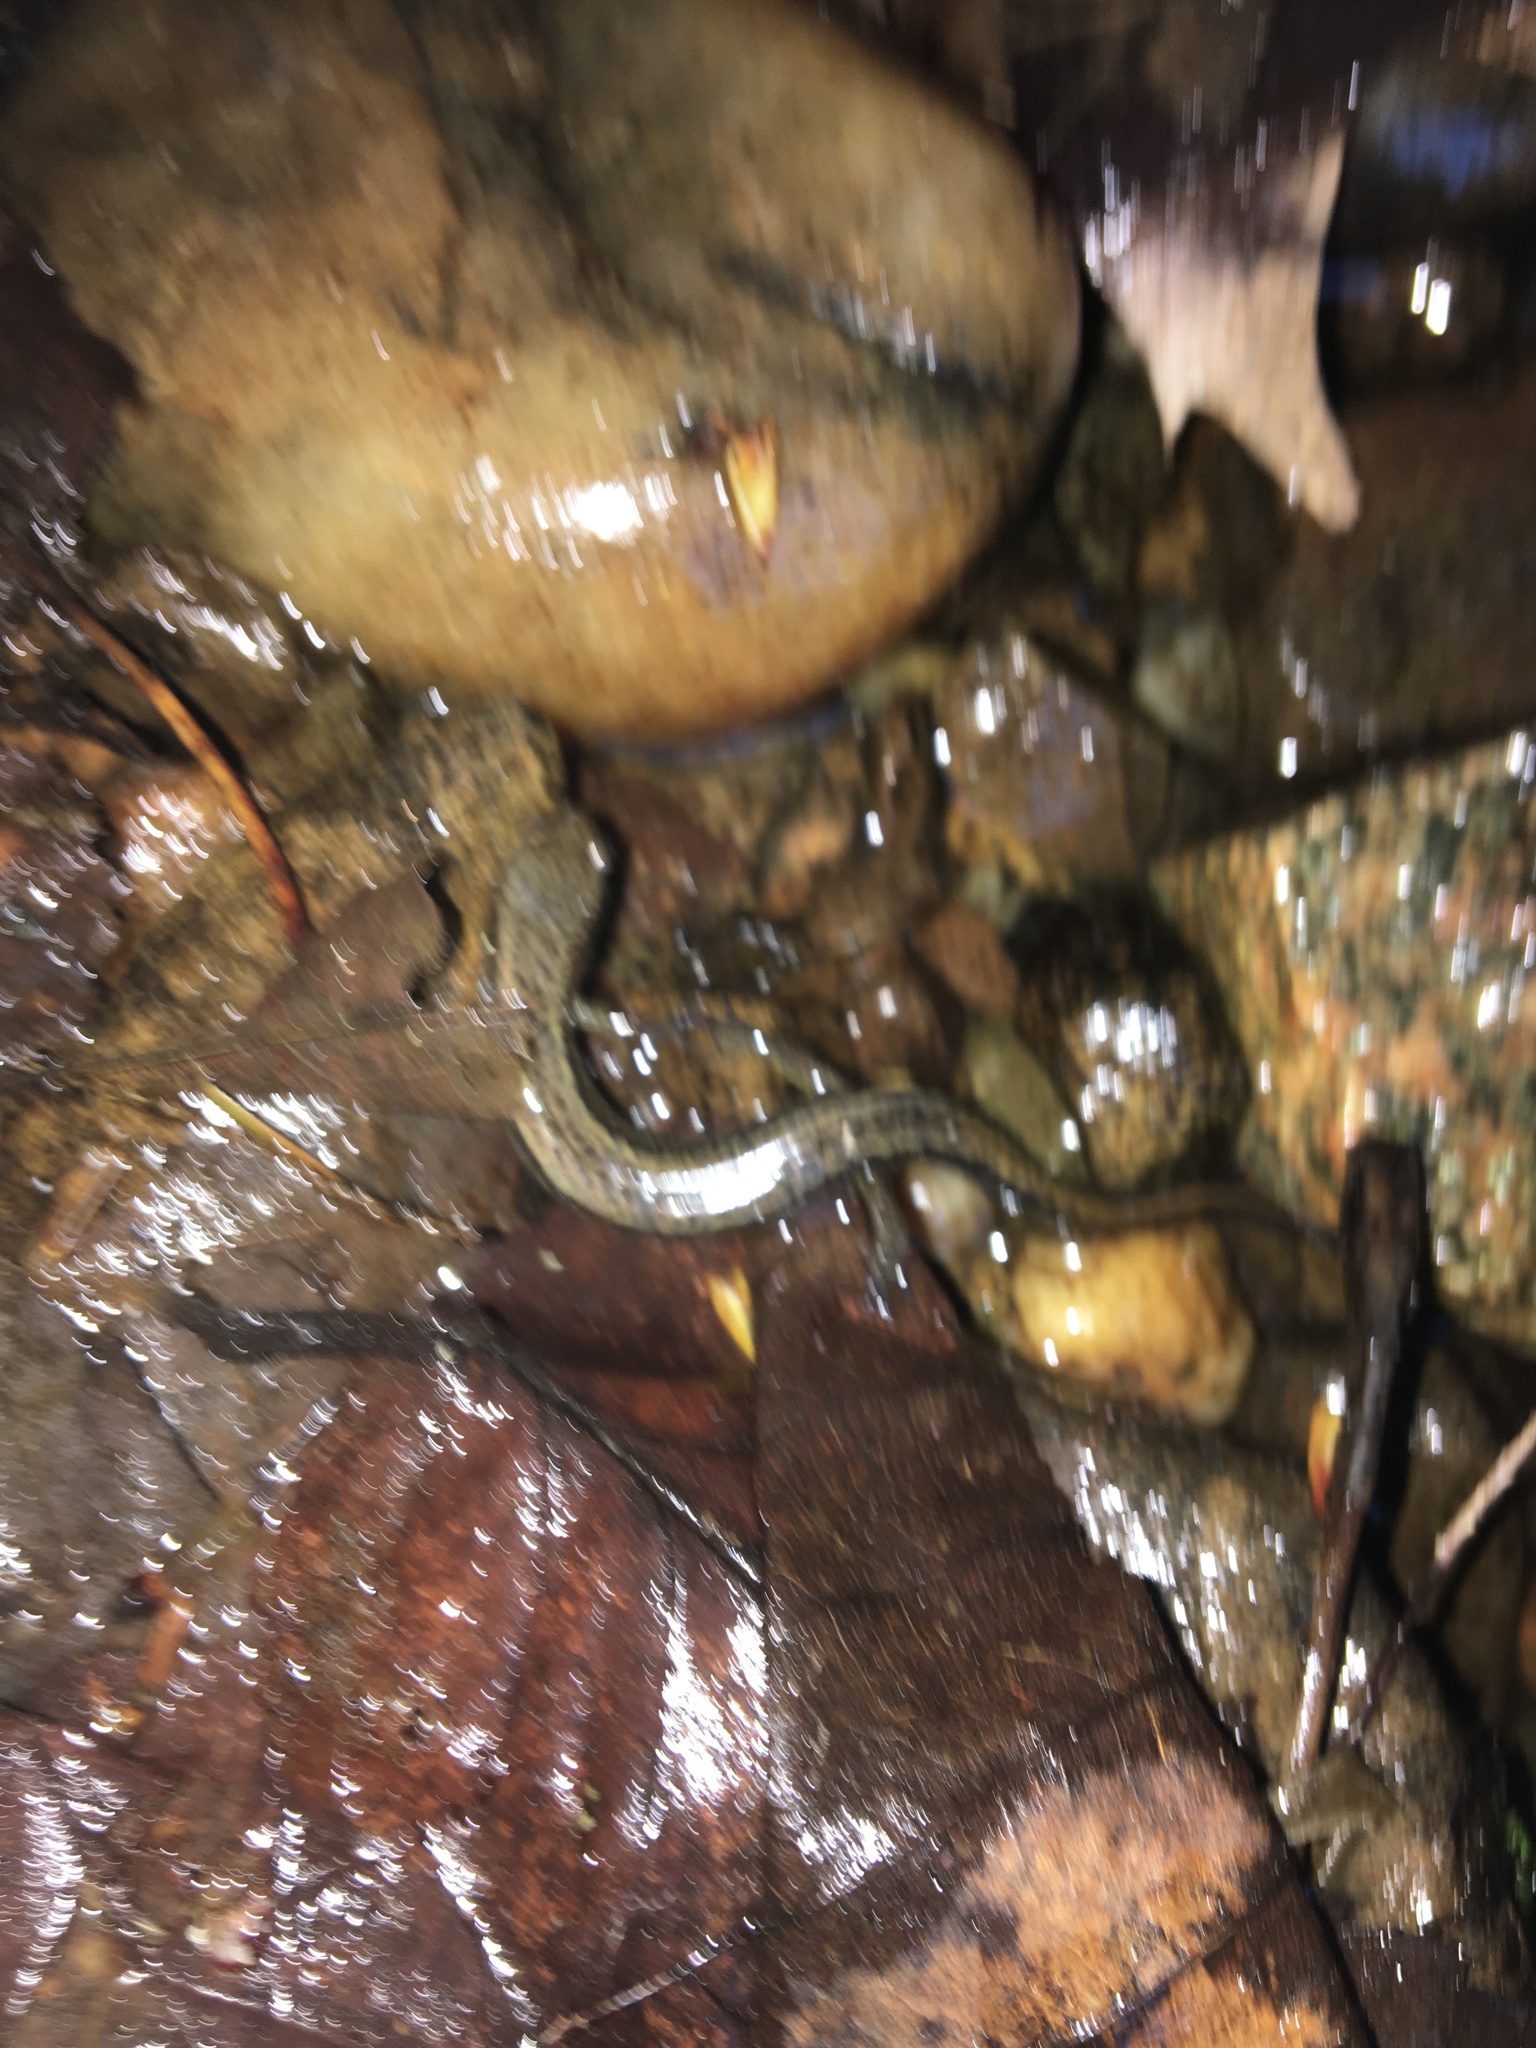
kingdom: Animalia
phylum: Chordata
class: Amphibia
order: Caudata
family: Plethodontidae
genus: Eurycea
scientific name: Eurycea bislineata
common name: Northern two-lined salamander
